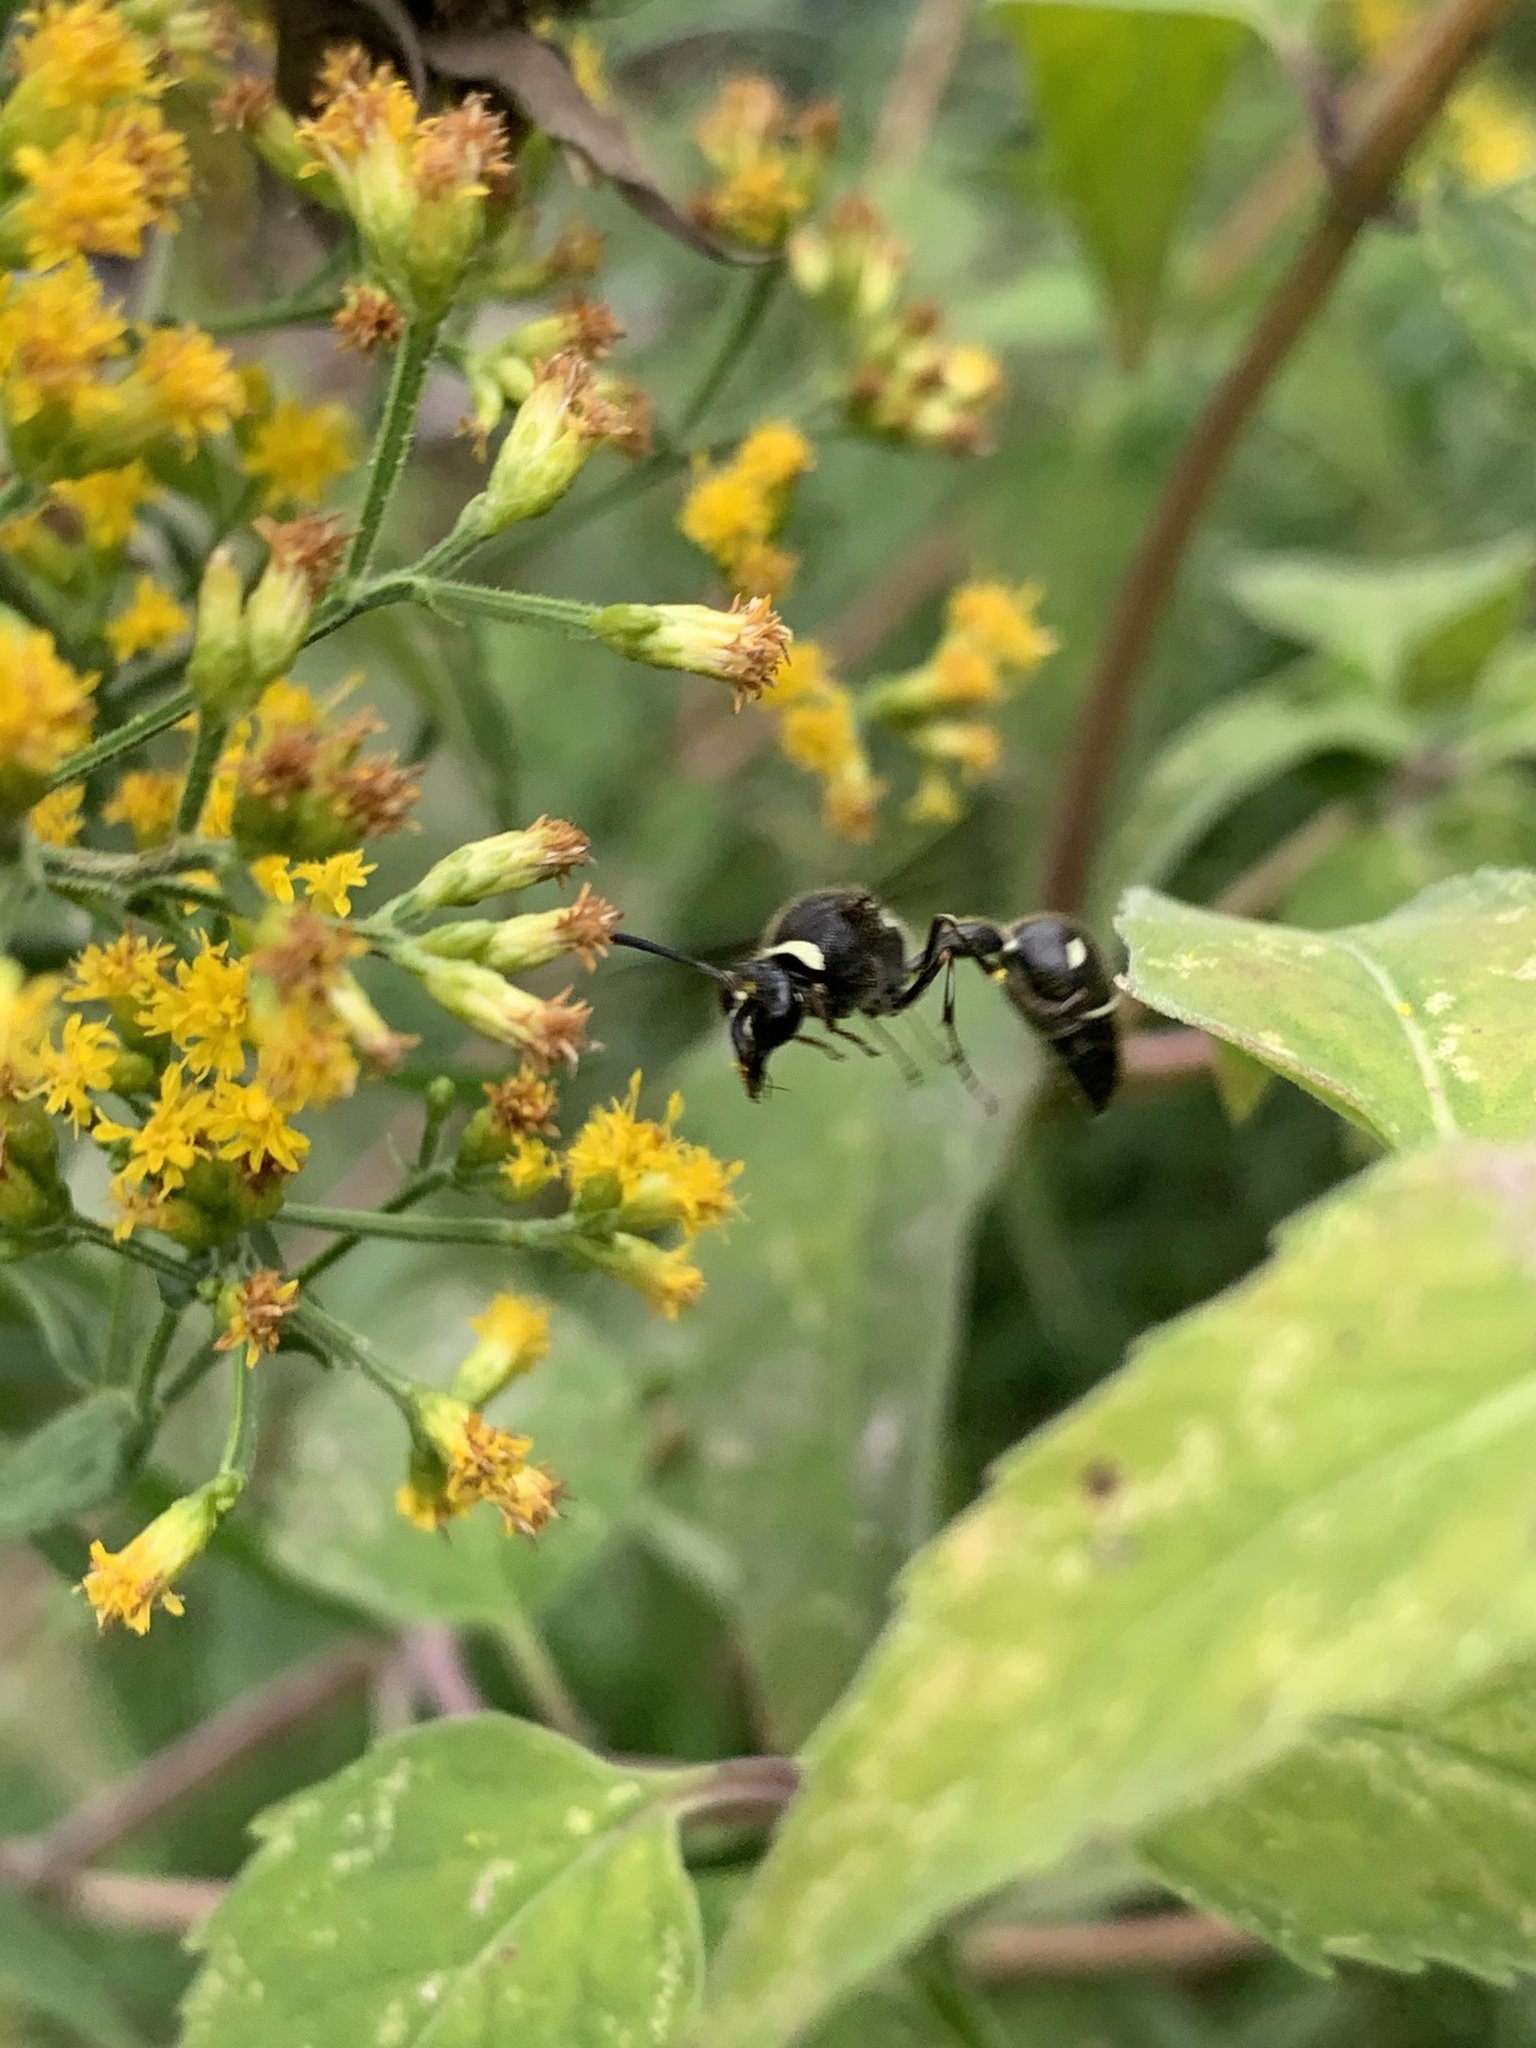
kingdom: Animalia
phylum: Arthropoda
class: Insecta
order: Hymenoptera
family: Vespidae
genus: Eumenes
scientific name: Eumenes fraternus
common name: Fraternal potter wasp
